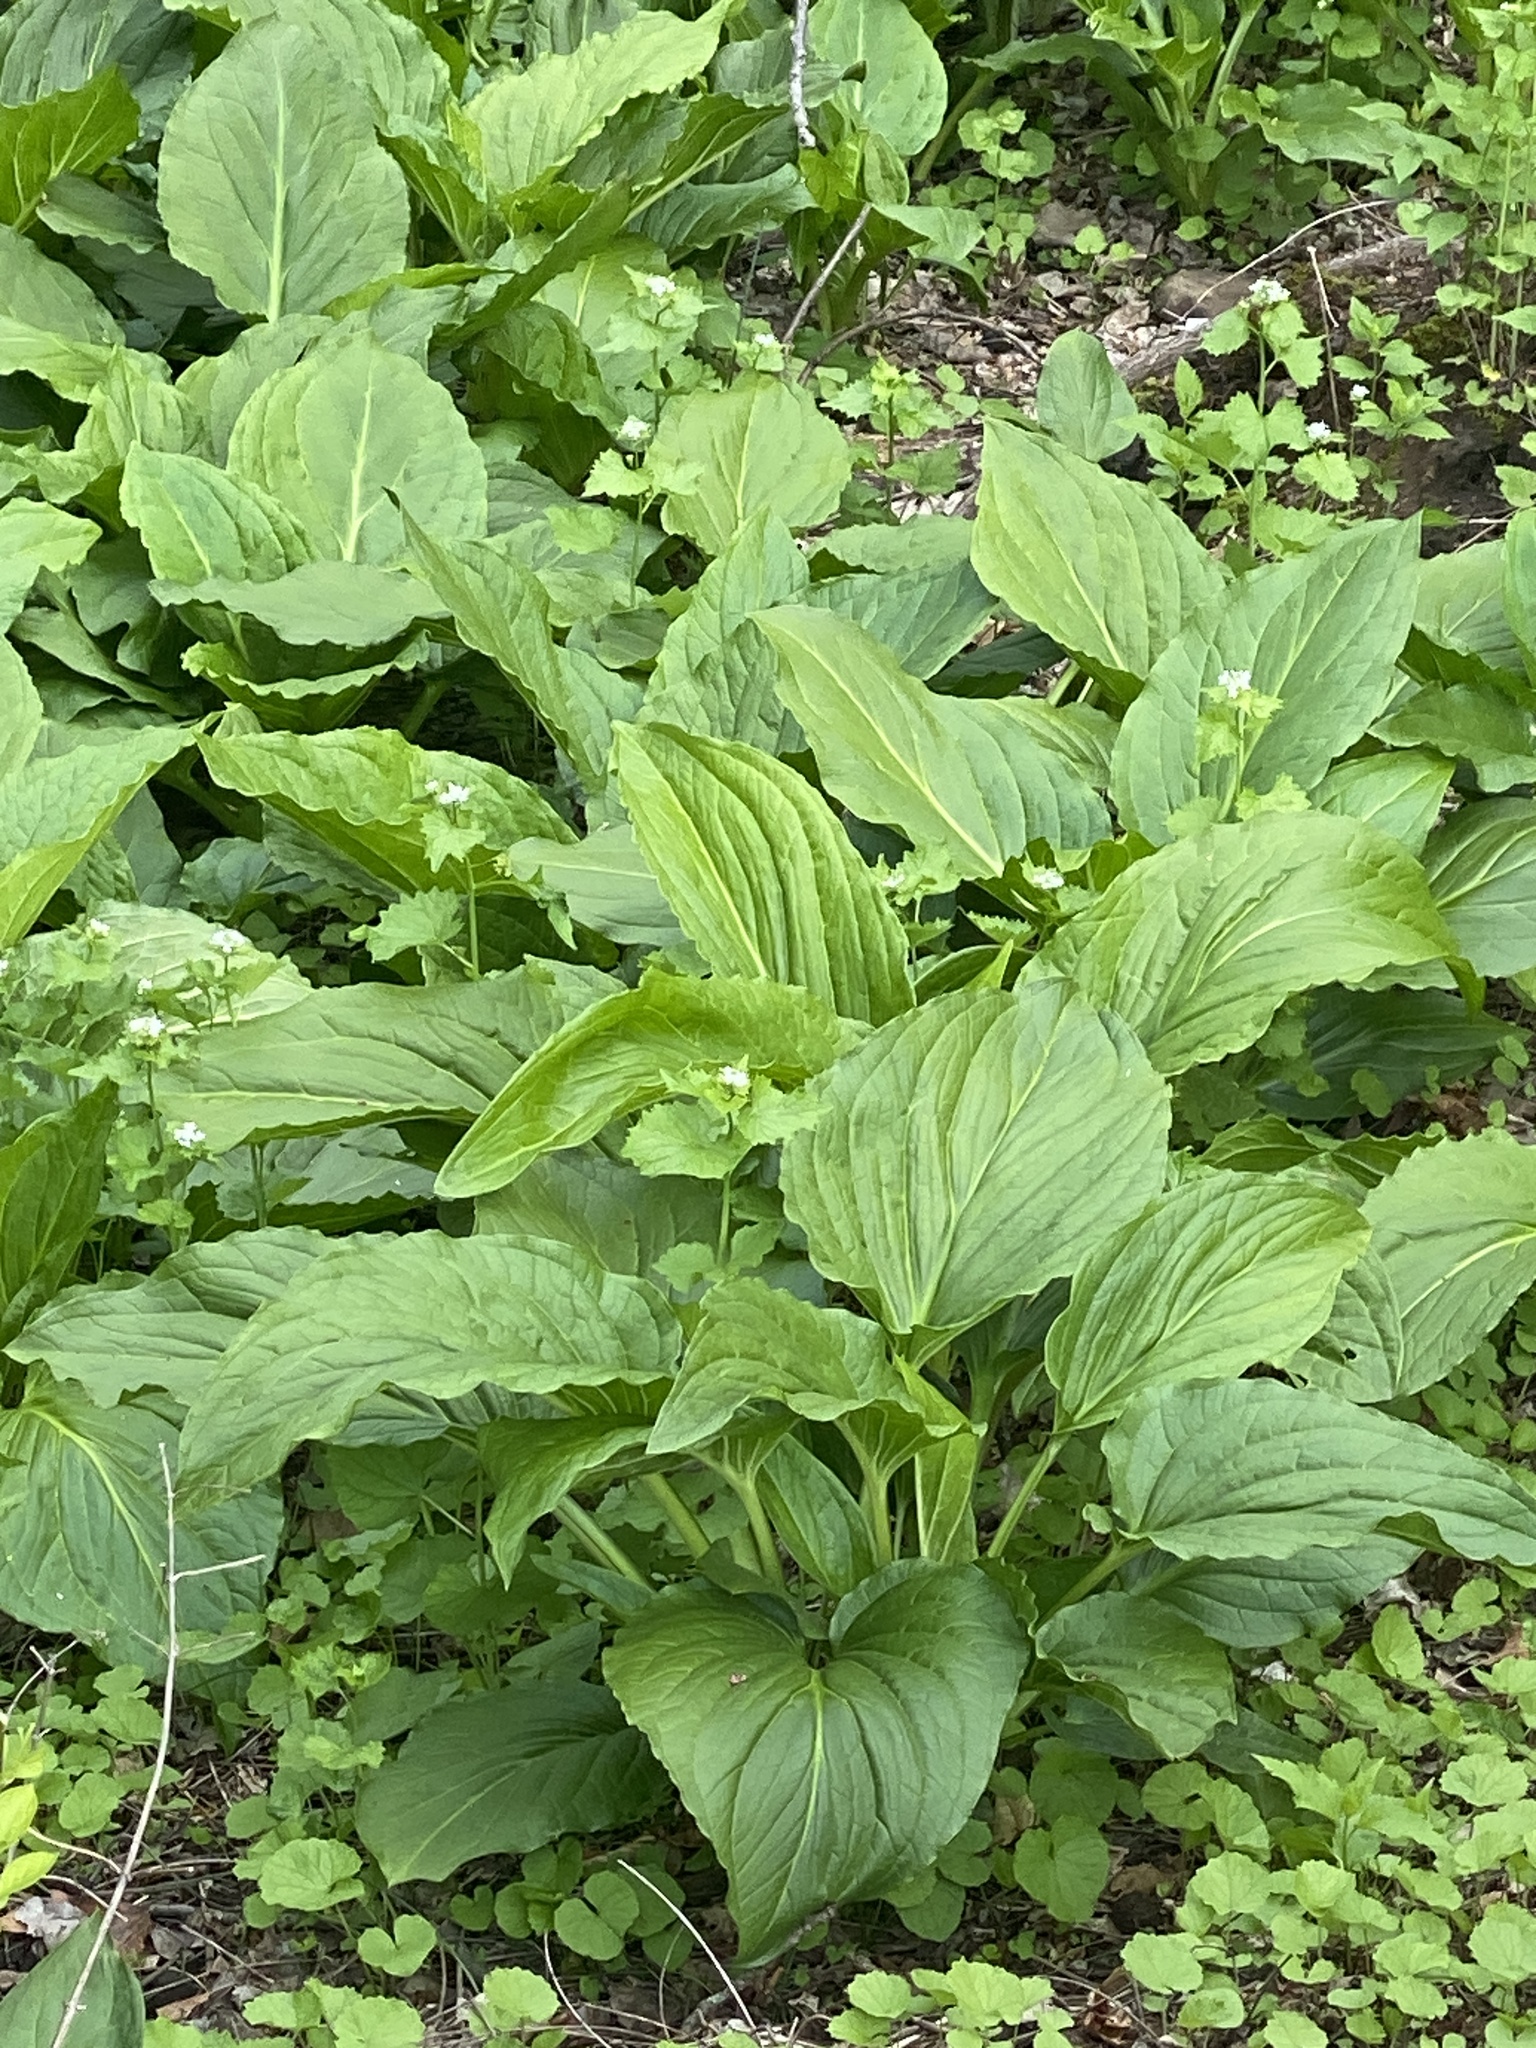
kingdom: Plantae
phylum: Tracheophyta
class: Liliopsida
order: Alismatales
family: Araceae
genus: Symplocarpus
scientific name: Symplocarpus foetidus
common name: Eastern skunk cabbage
